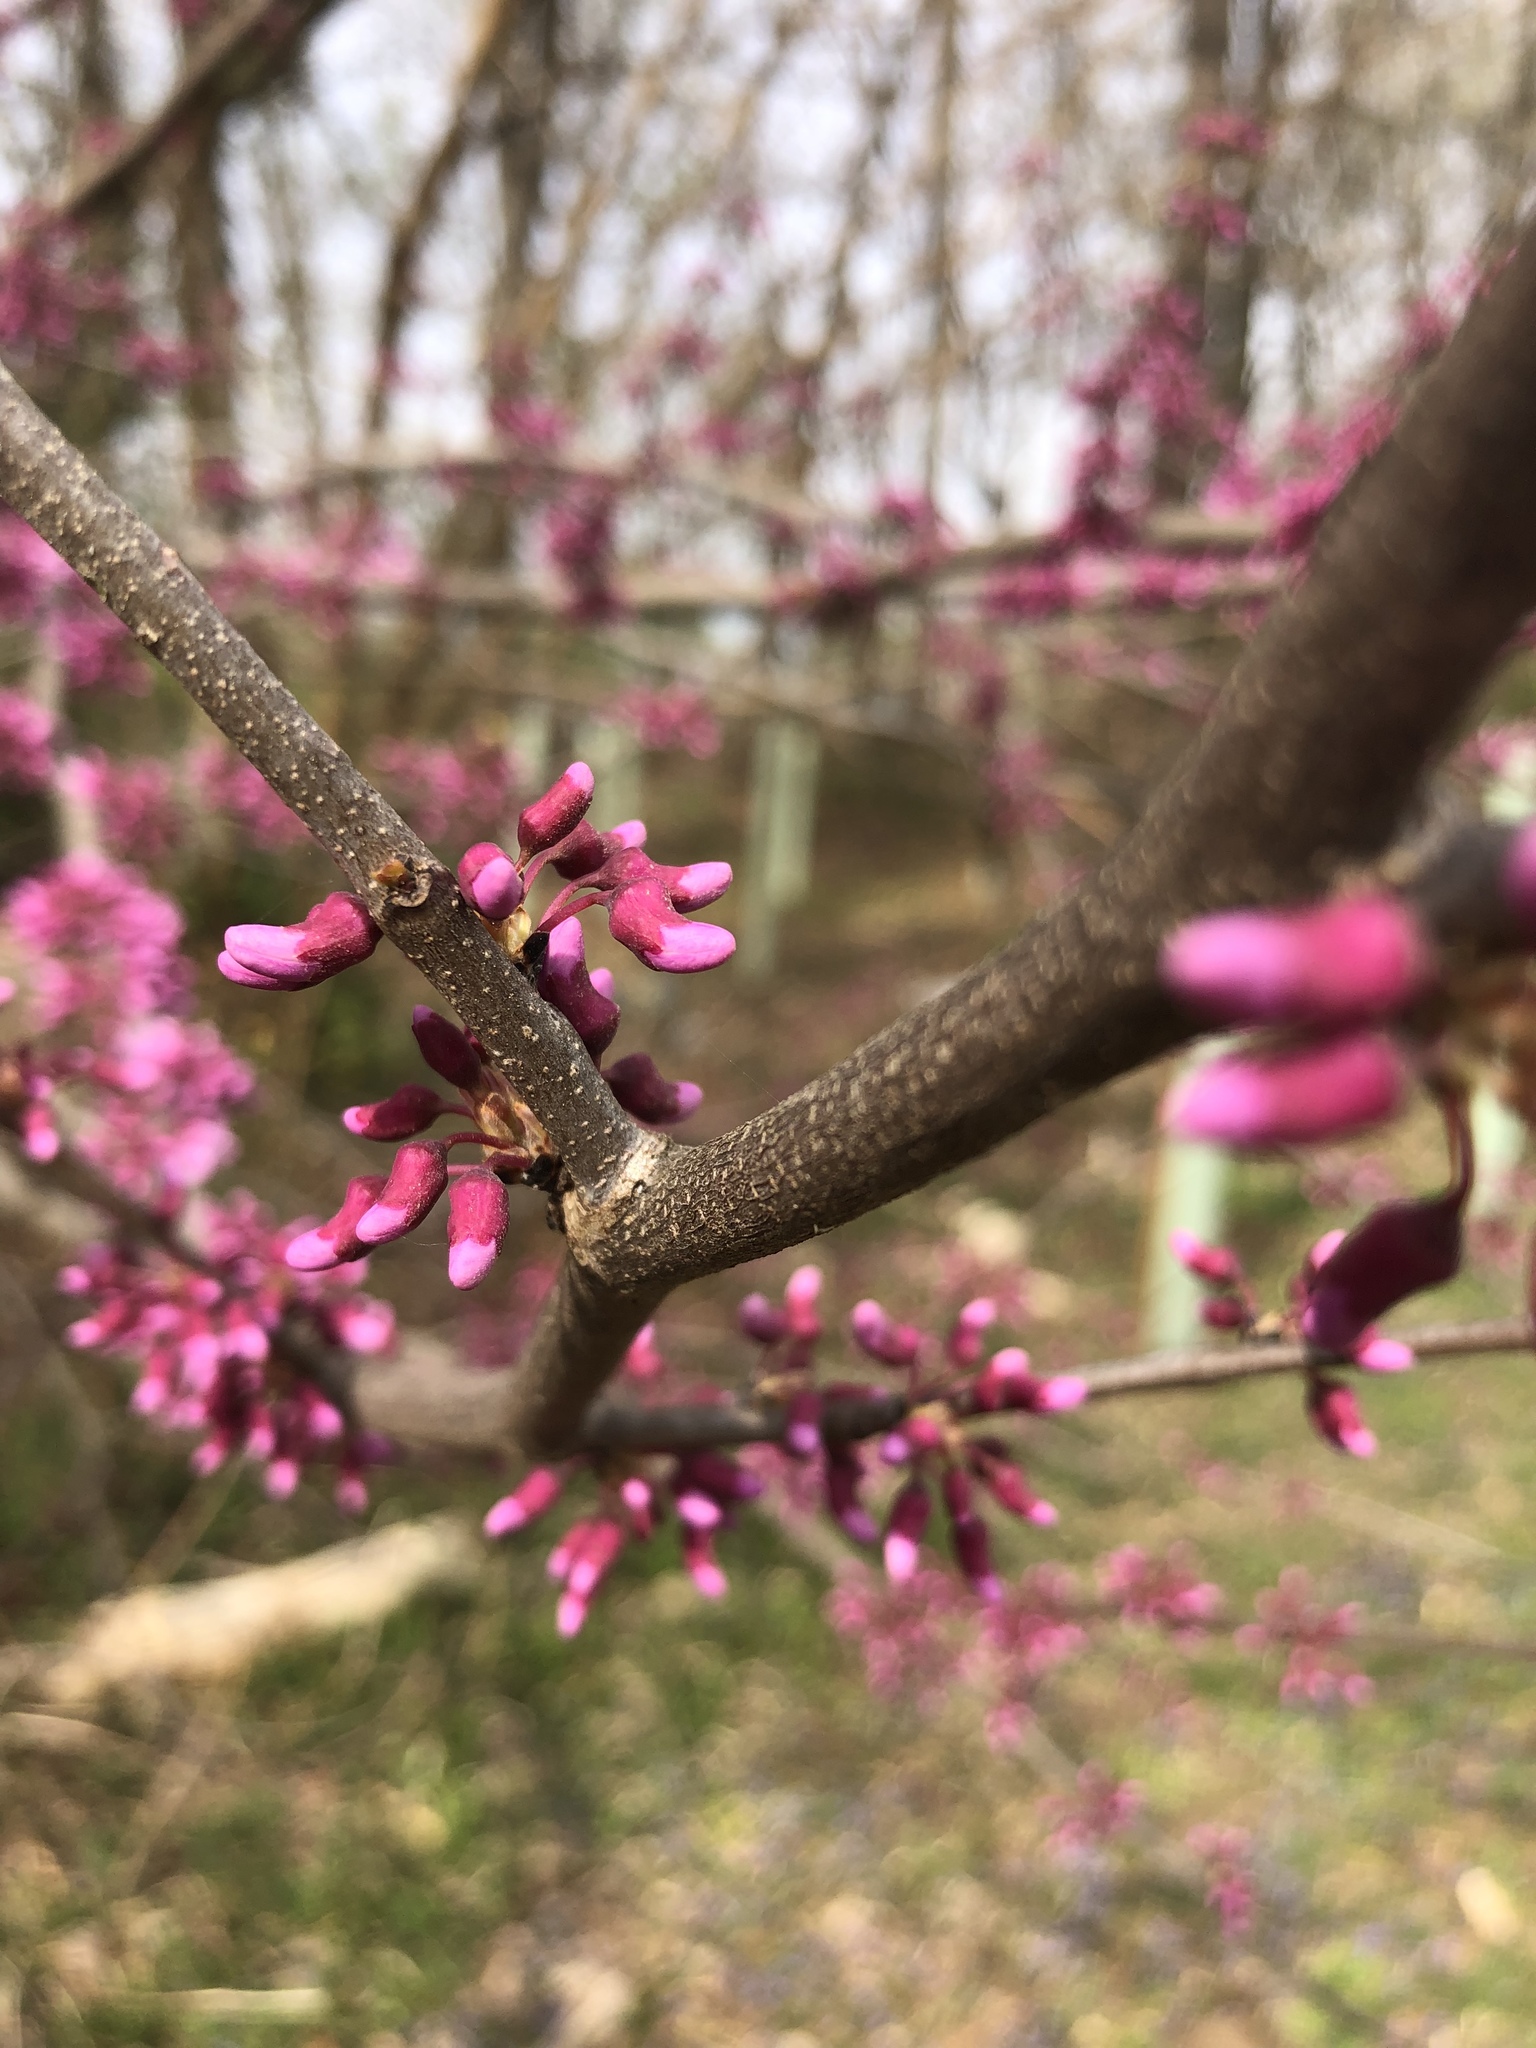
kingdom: Plantae
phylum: Tracheophyta
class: Magnoliopsida
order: Fabales
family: Fabaceae
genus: Cercis
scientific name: Cercis canadensis
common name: Eastern redbud
